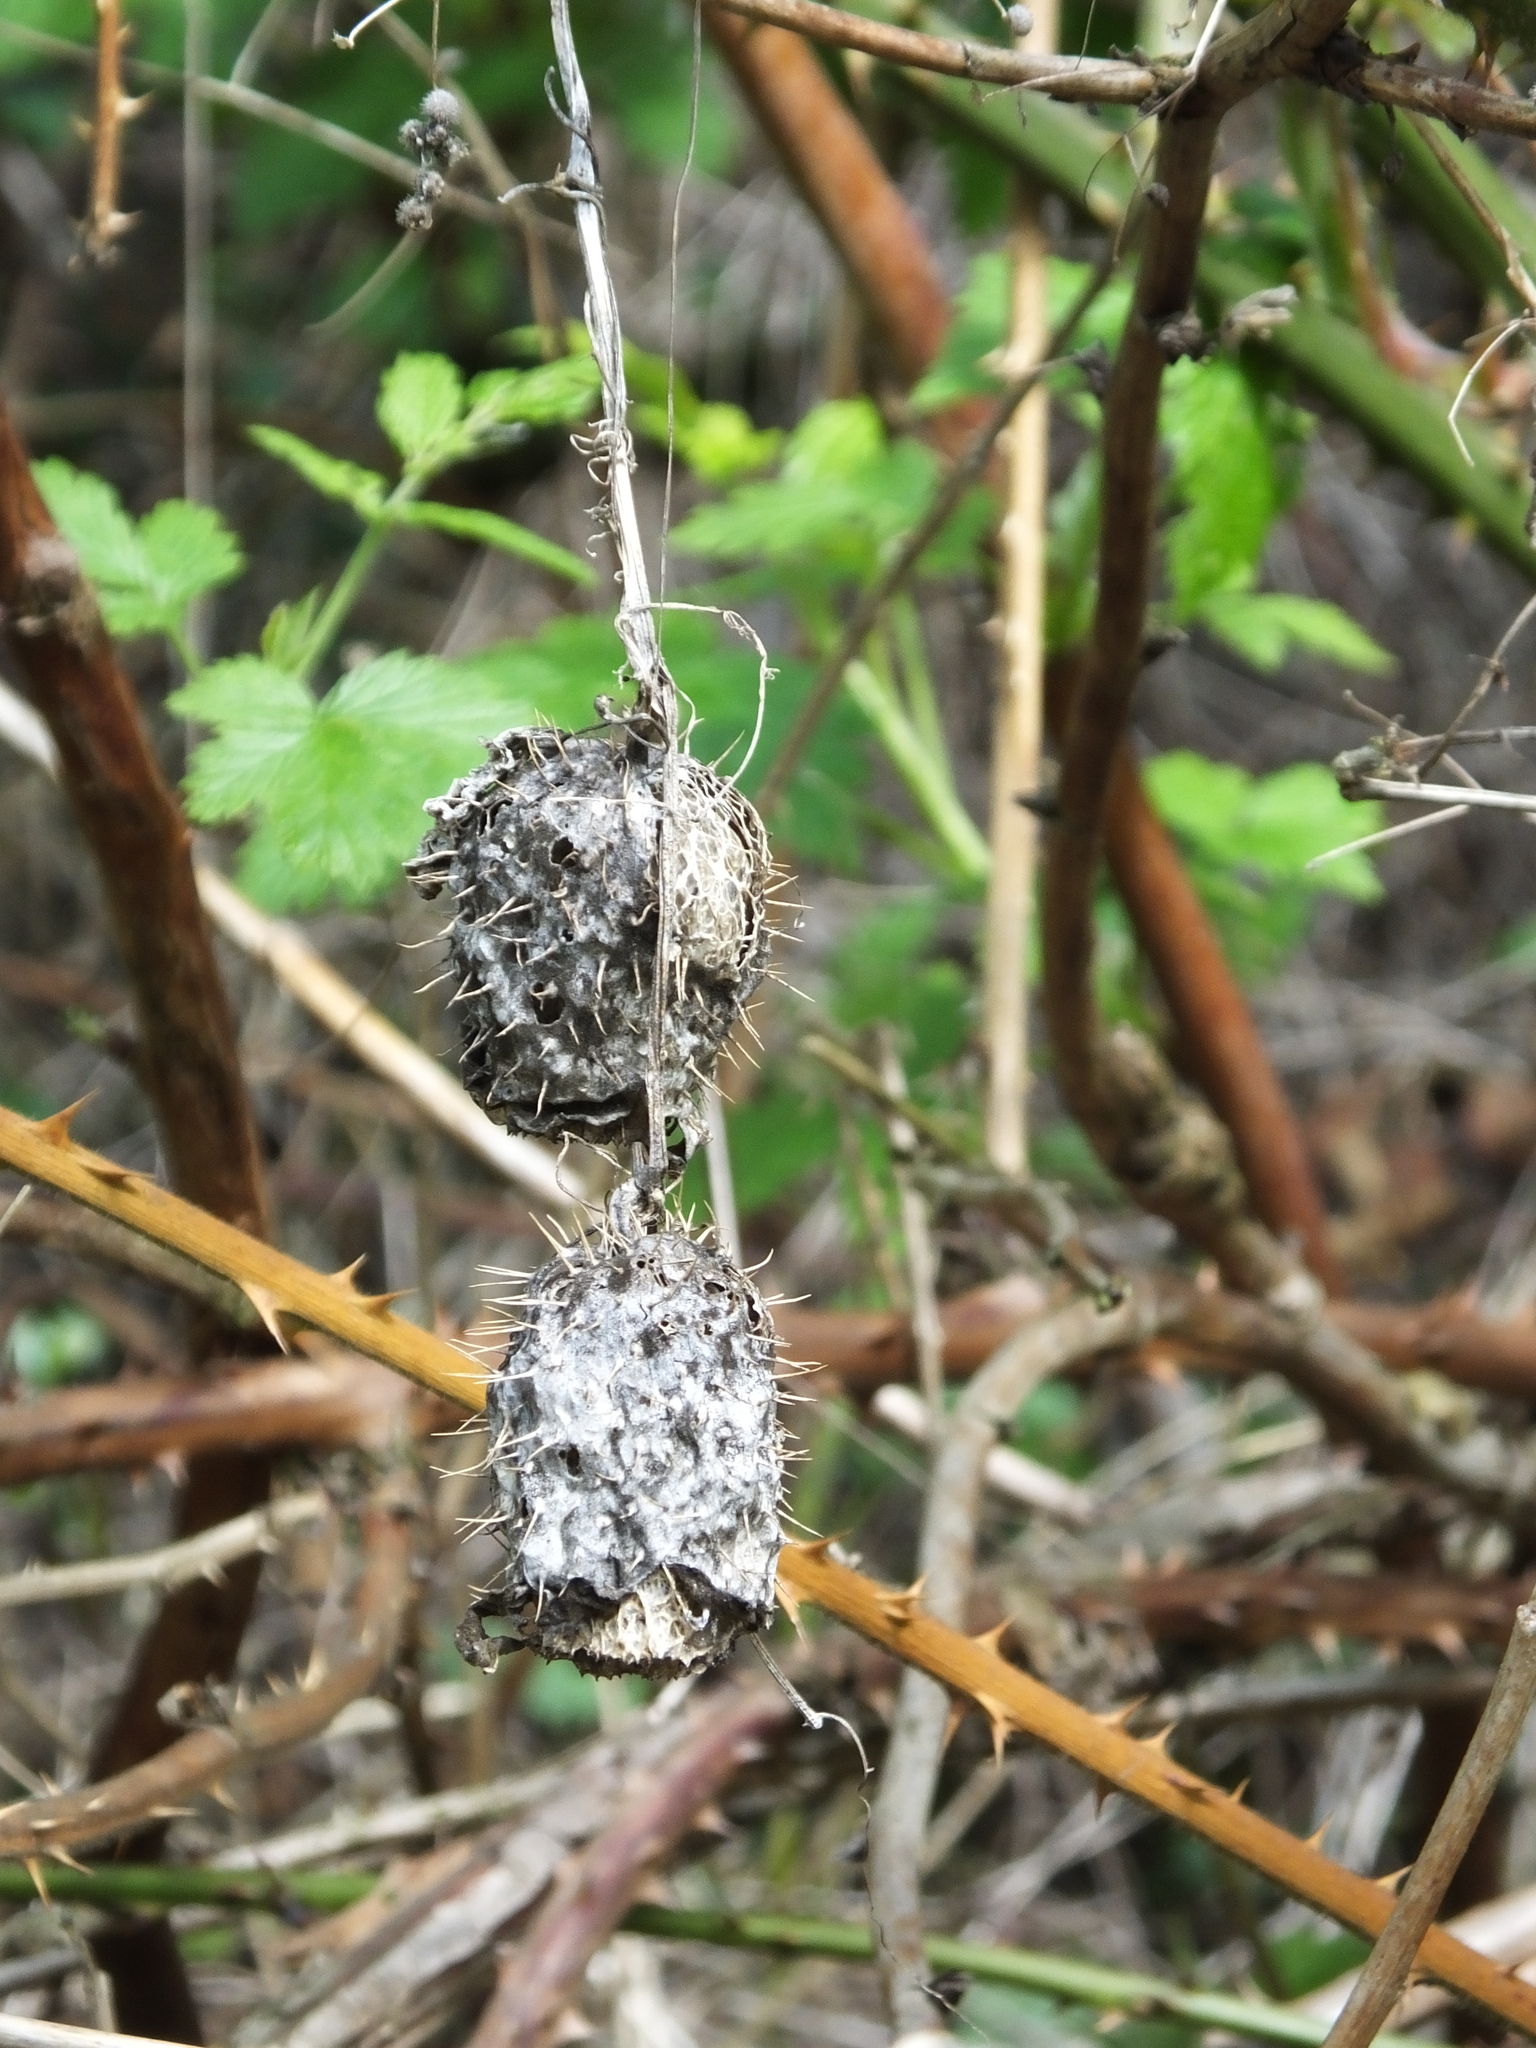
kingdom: Plantae
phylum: Tracheophyta
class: Magnoliopsida
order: Cucurbitales
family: Cucurbitaceae
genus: Echinocystis
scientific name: Echinocystis lobata
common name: Wild cucumber
